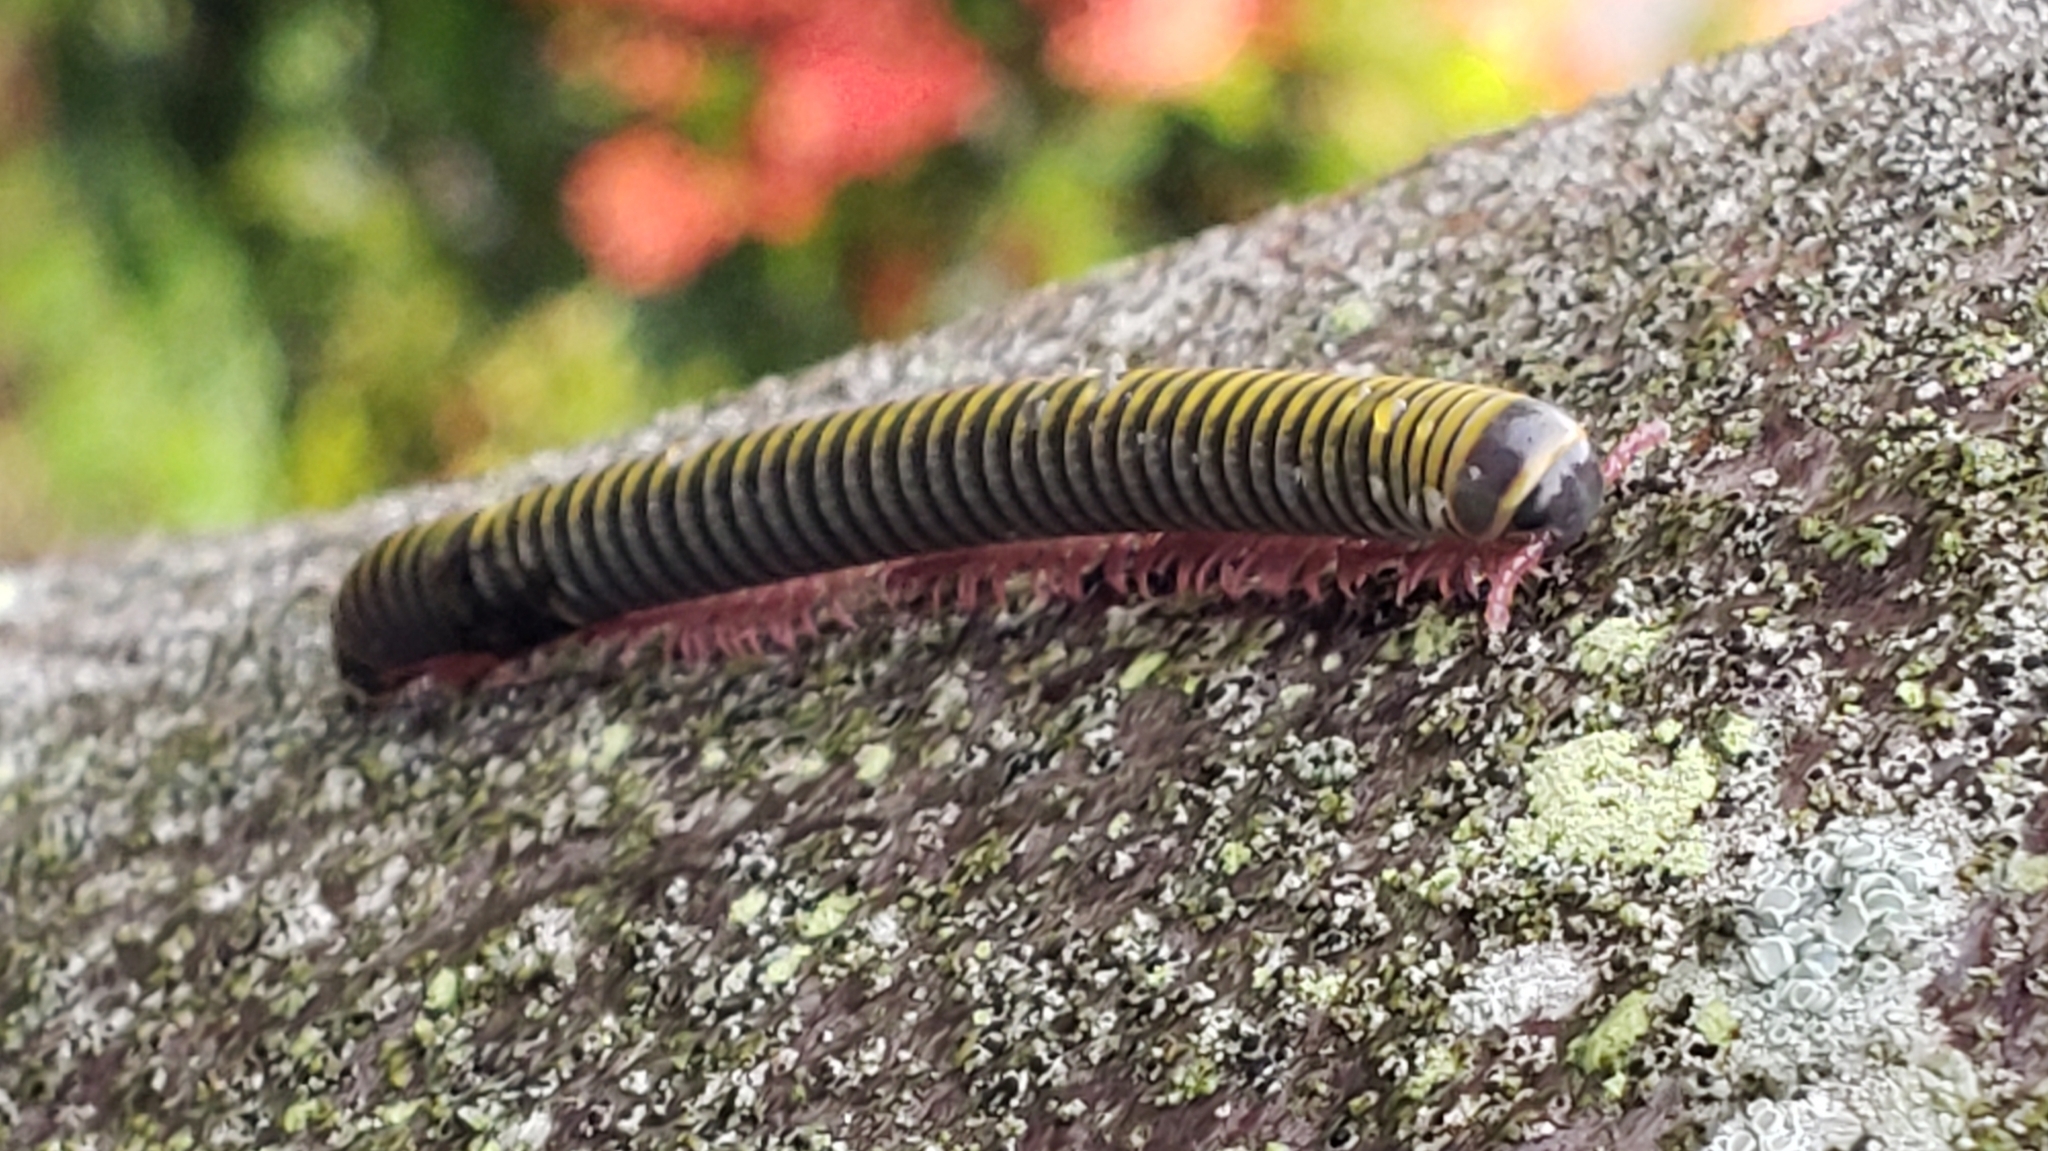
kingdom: Animalia
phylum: Arthropoda
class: Diplopoda
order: Spirobolida
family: Rhinocricidae
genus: Anadenobolus
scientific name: Anadenobolus monilicornis
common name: Caribbean millipede
